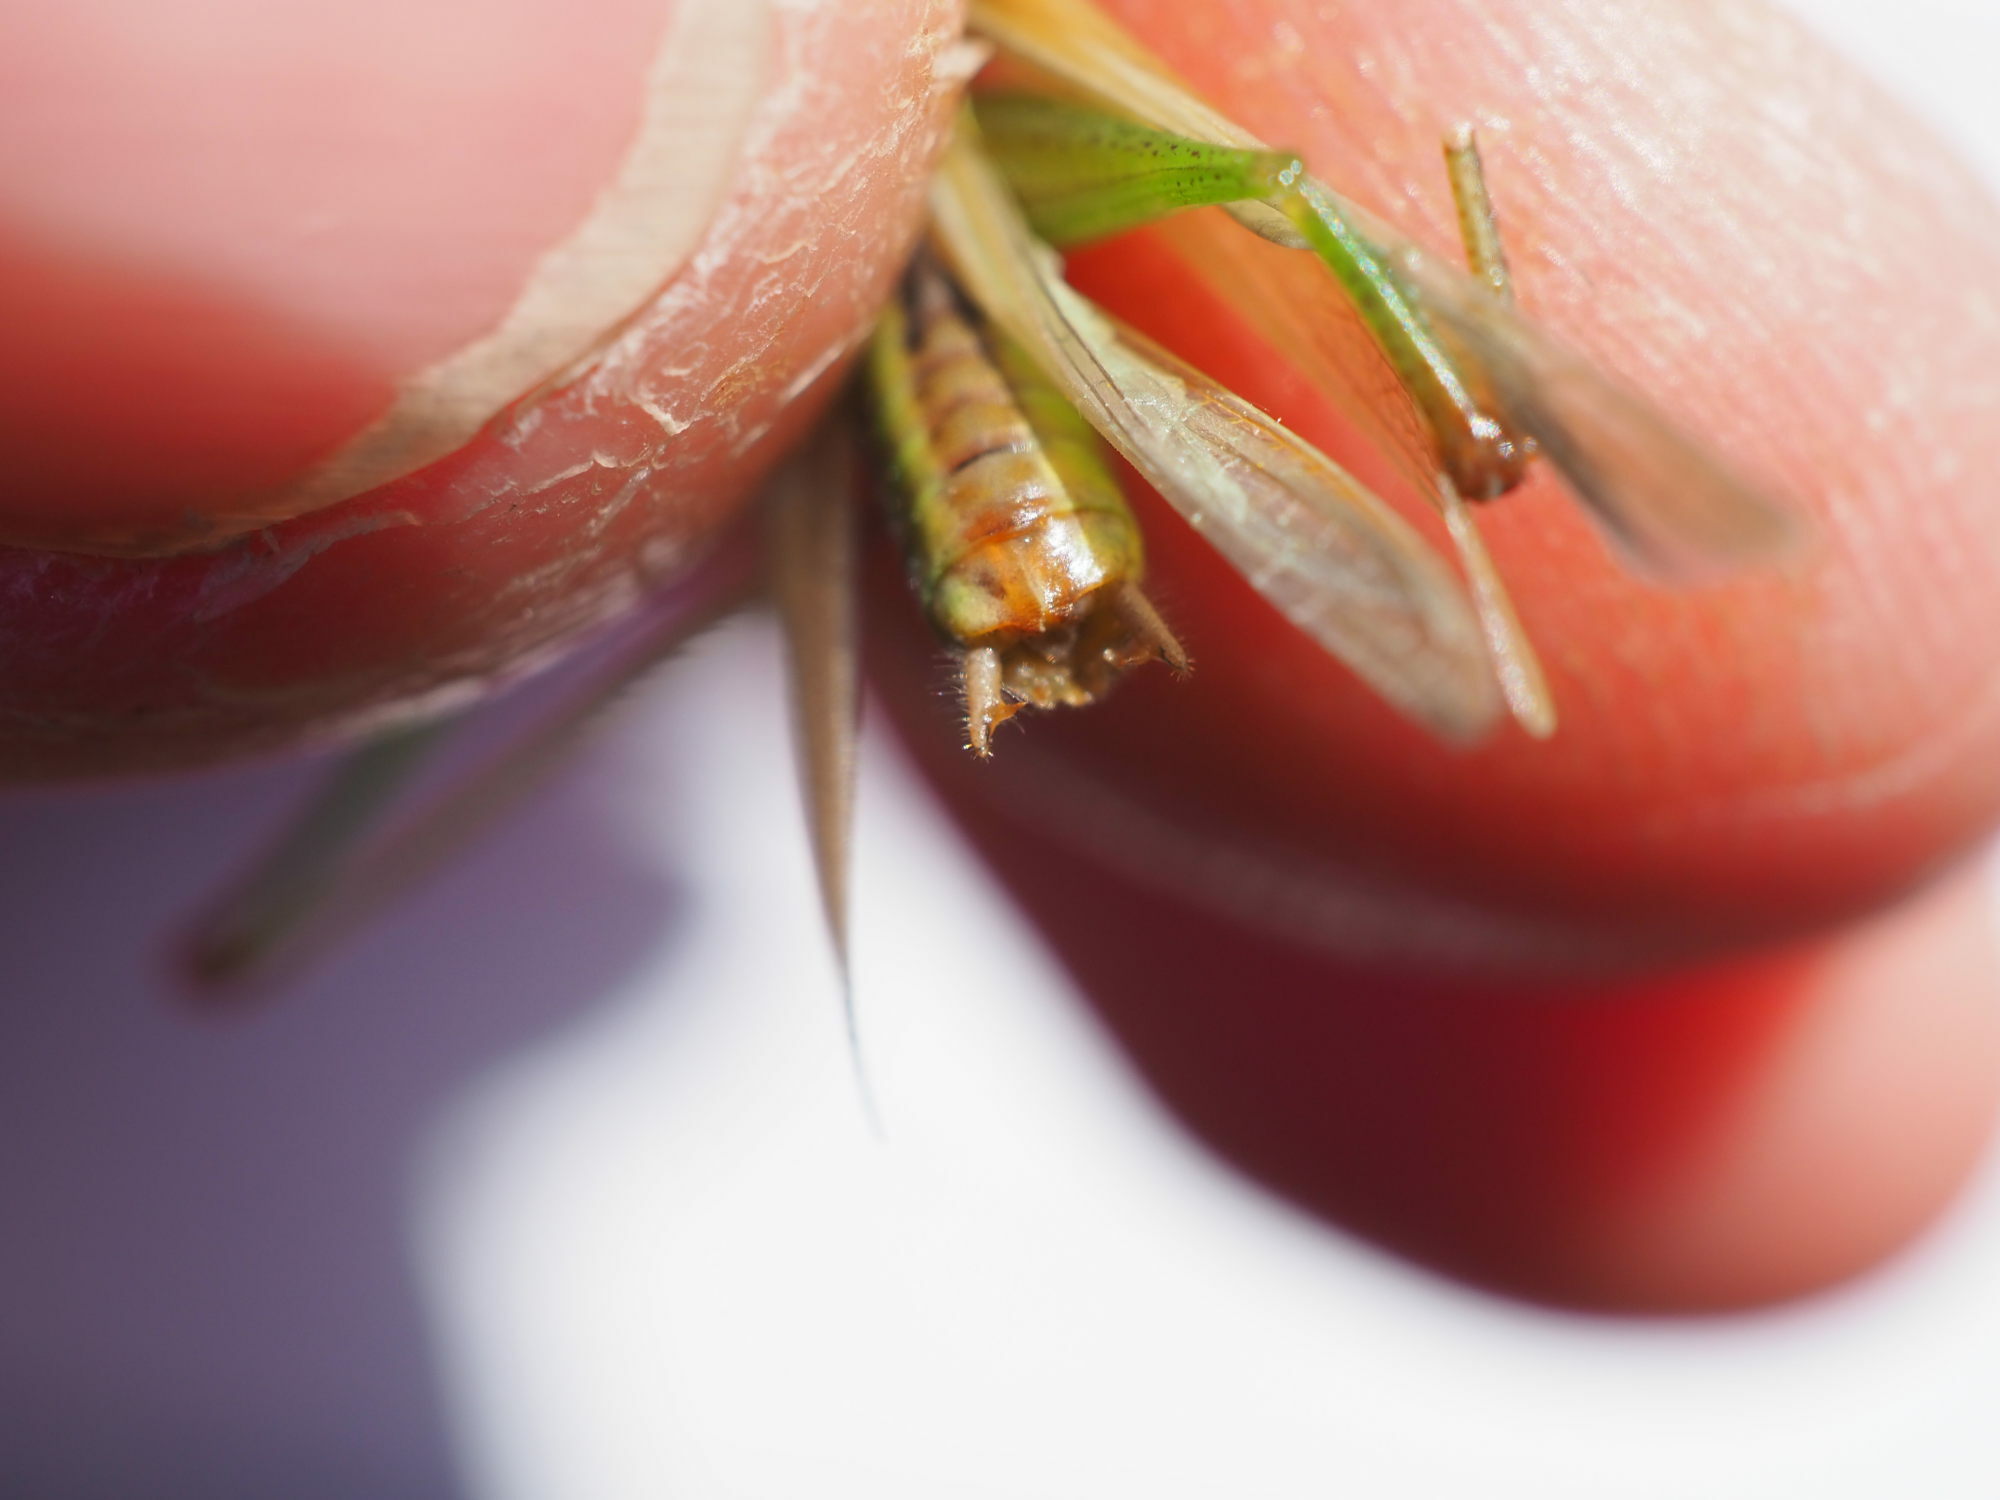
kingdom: Animalia
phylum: Arthropoda
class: Insecta
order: Orthoptera
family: Tettigoniidae
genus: Conocephalus
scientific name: Conocephalus fuscus
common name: Long-winged conehead
